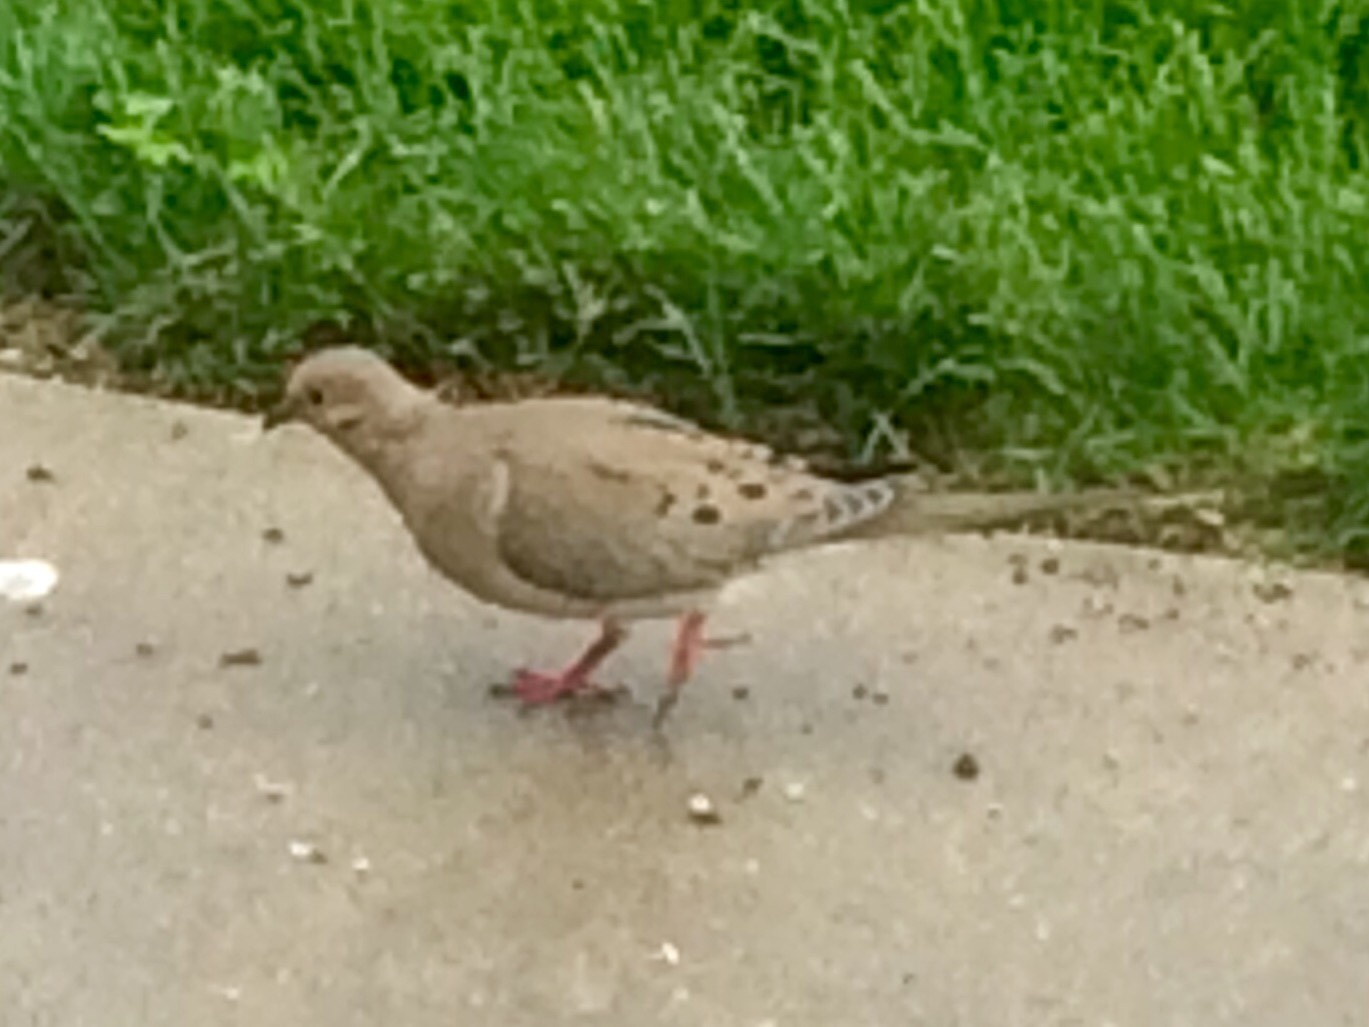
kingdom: Animalia
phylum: Chordata
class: Aves
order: Columbiformes
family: Columbidae
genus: Zenaida
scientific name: Zenaida macroura
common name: Mourning dove
